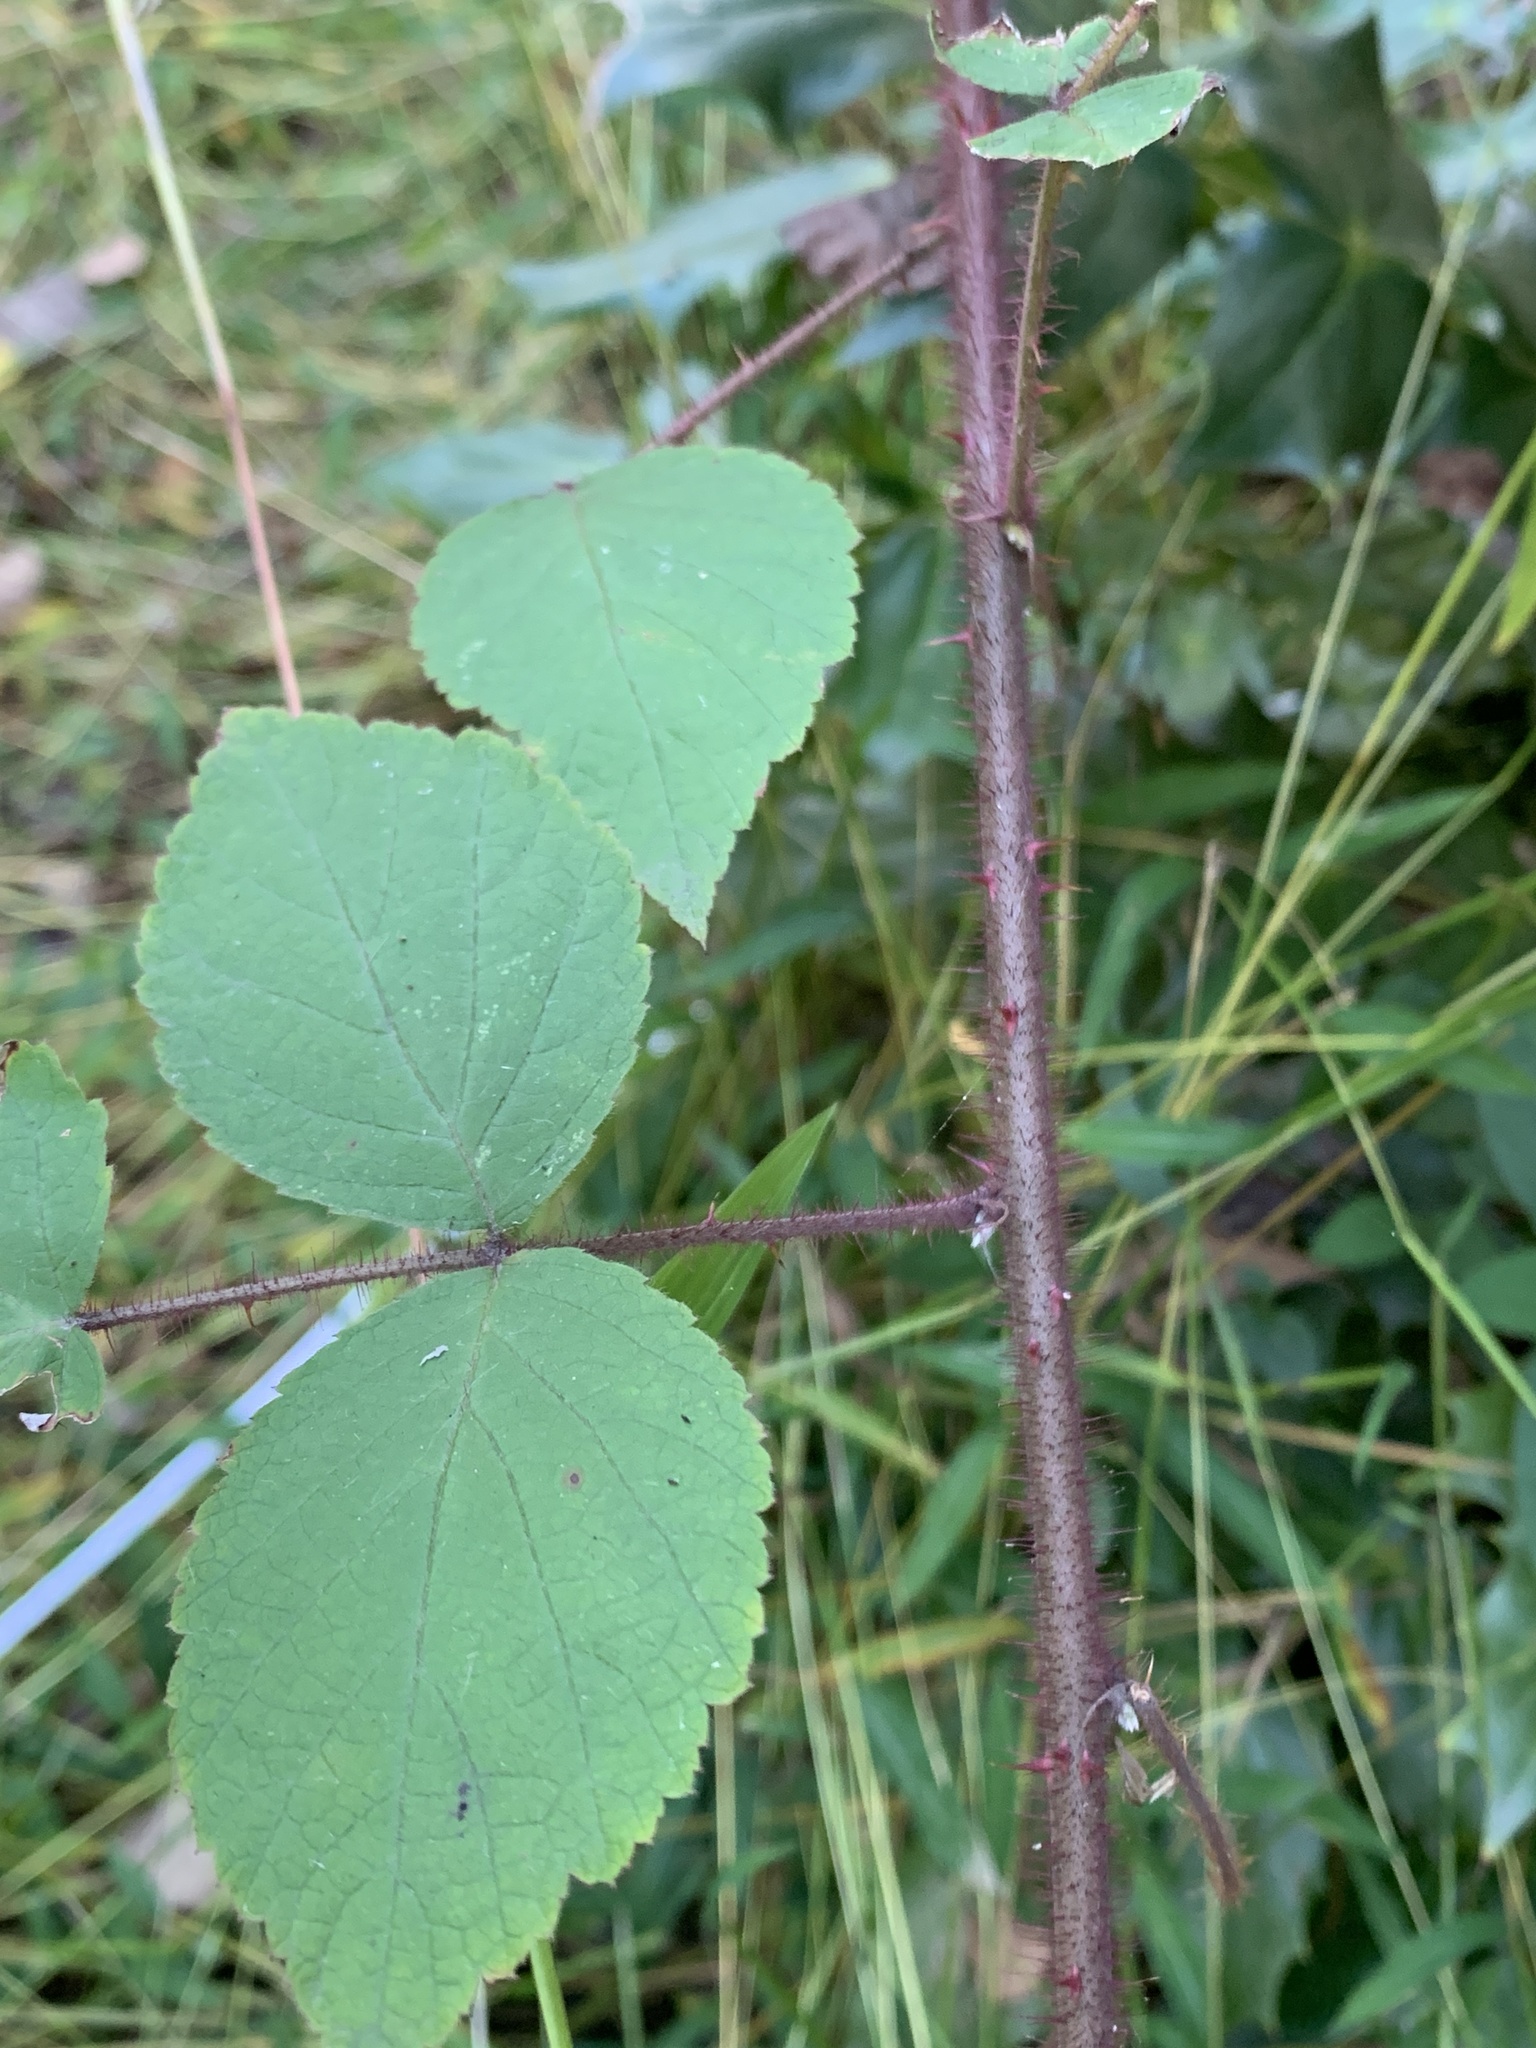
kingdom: Plantae
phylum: Tracheophyta
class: Magnoliopsida
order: Rosales
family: Rosaceae
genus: Rubus
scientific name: Rubus phoenicolasius
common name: Japanese wineberry
